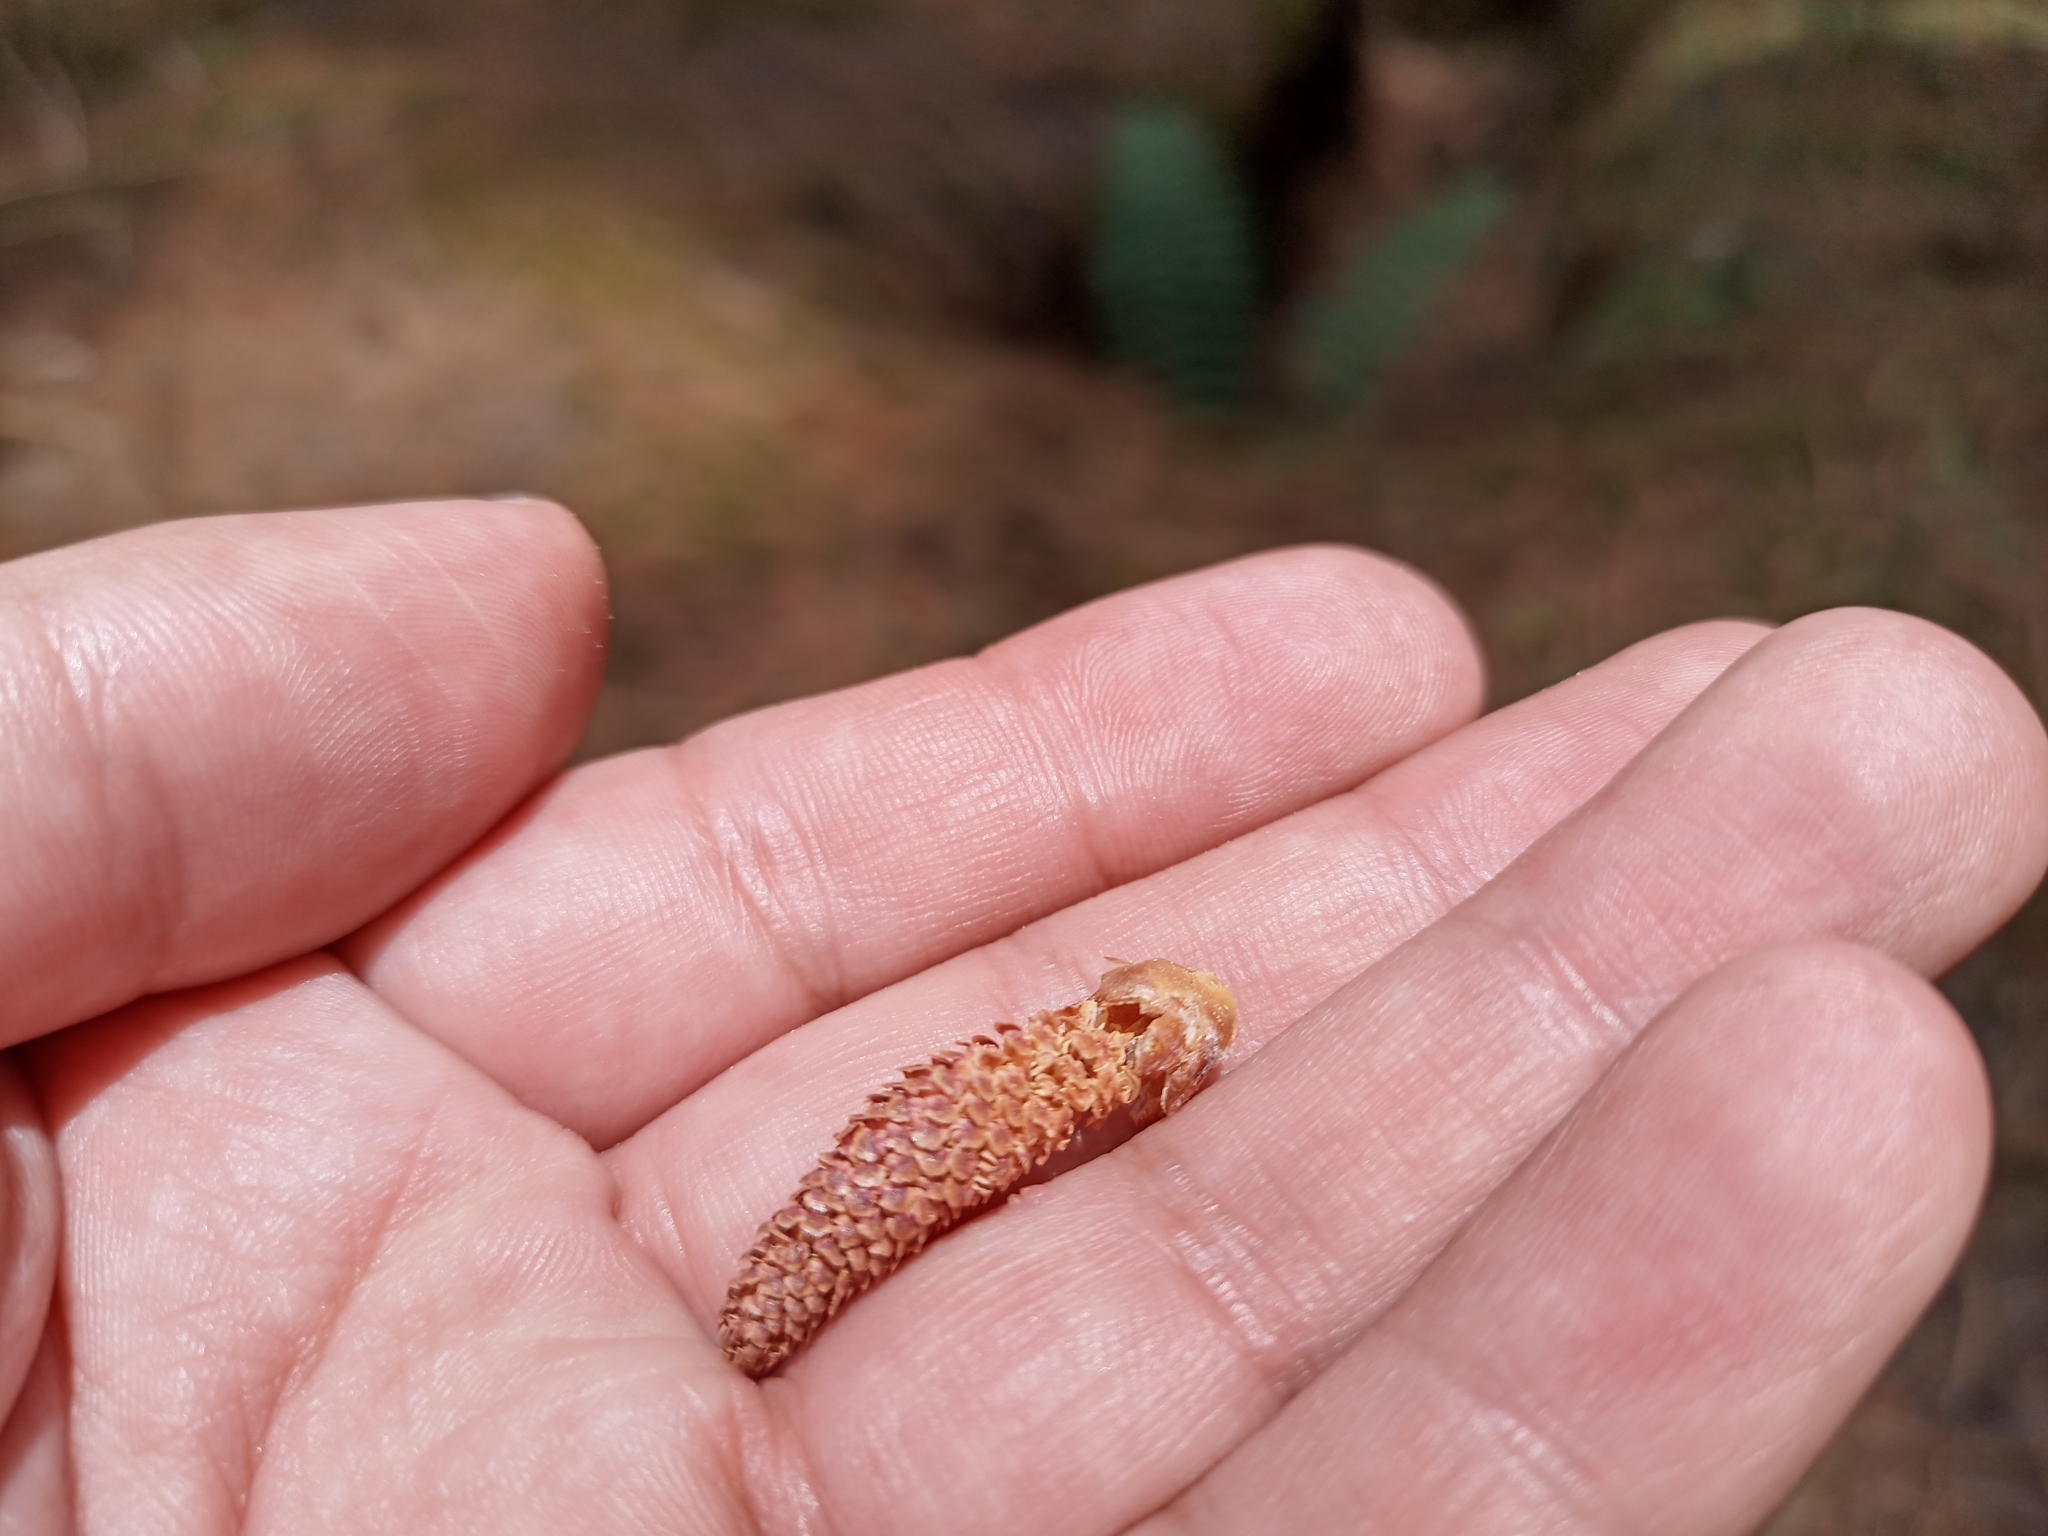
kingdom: Plantae
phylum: Tracheophyta
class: Pinopsida
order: Pinales
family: Pinaceae
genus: Pinus
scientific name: Pinus
